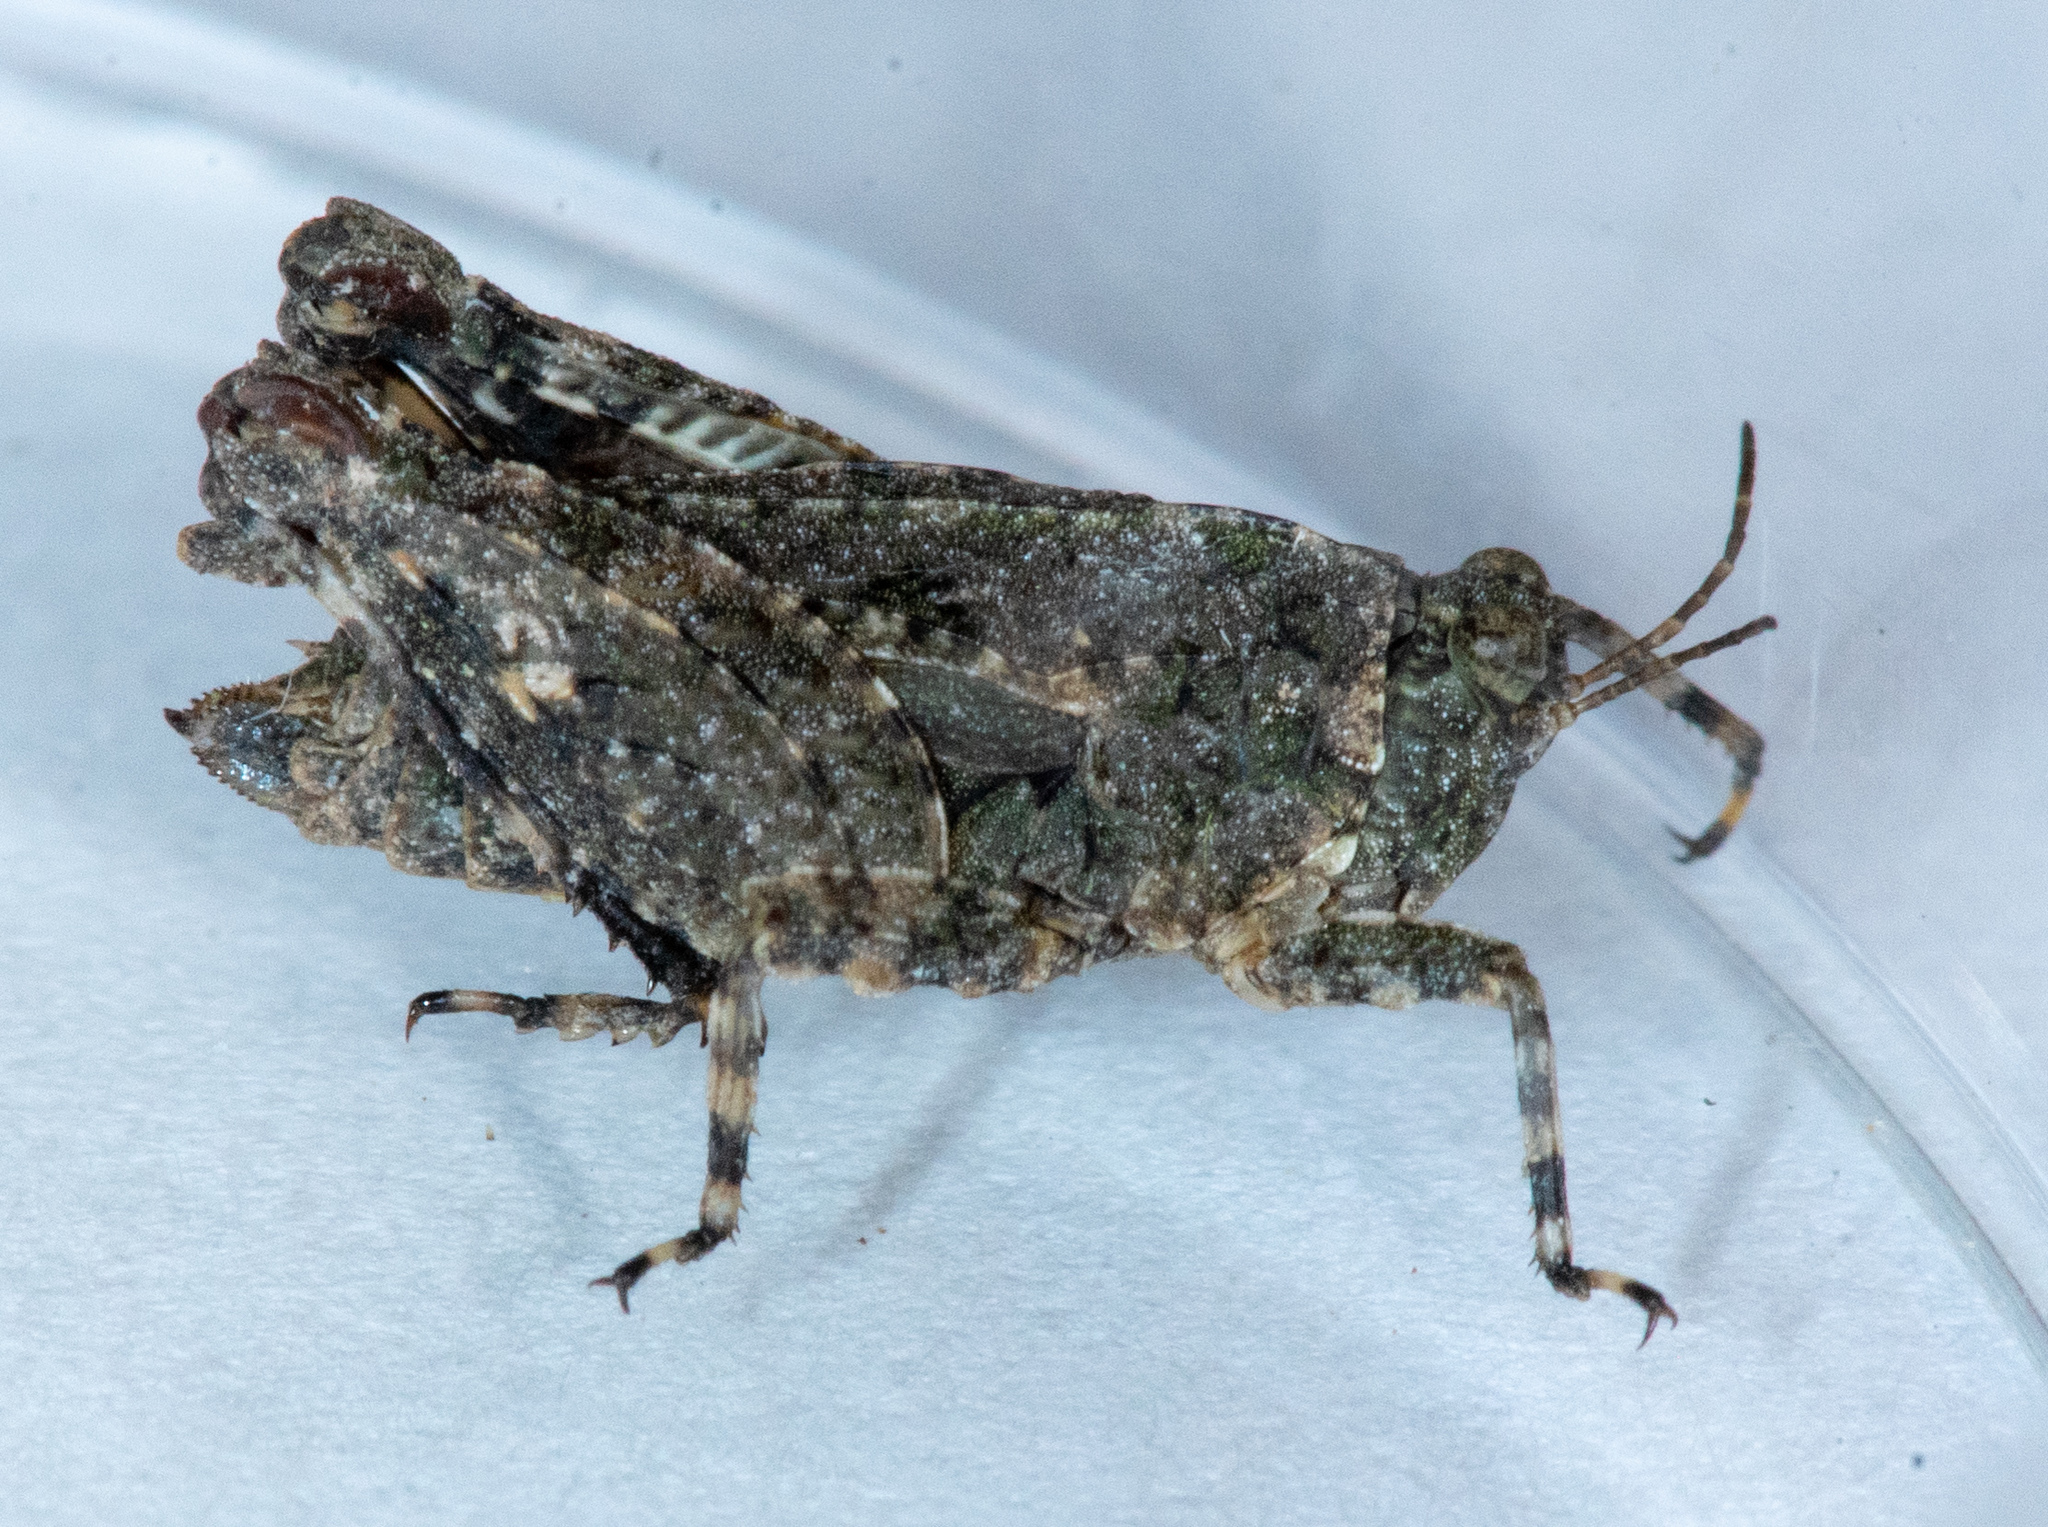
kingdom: Animalia
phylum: Arthropoda
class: Insecta
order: Orthoptera
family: Tetrigidae
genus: Paratettix
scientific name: Paratettix mexicanus
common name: Mexican pygmy grasshopper
